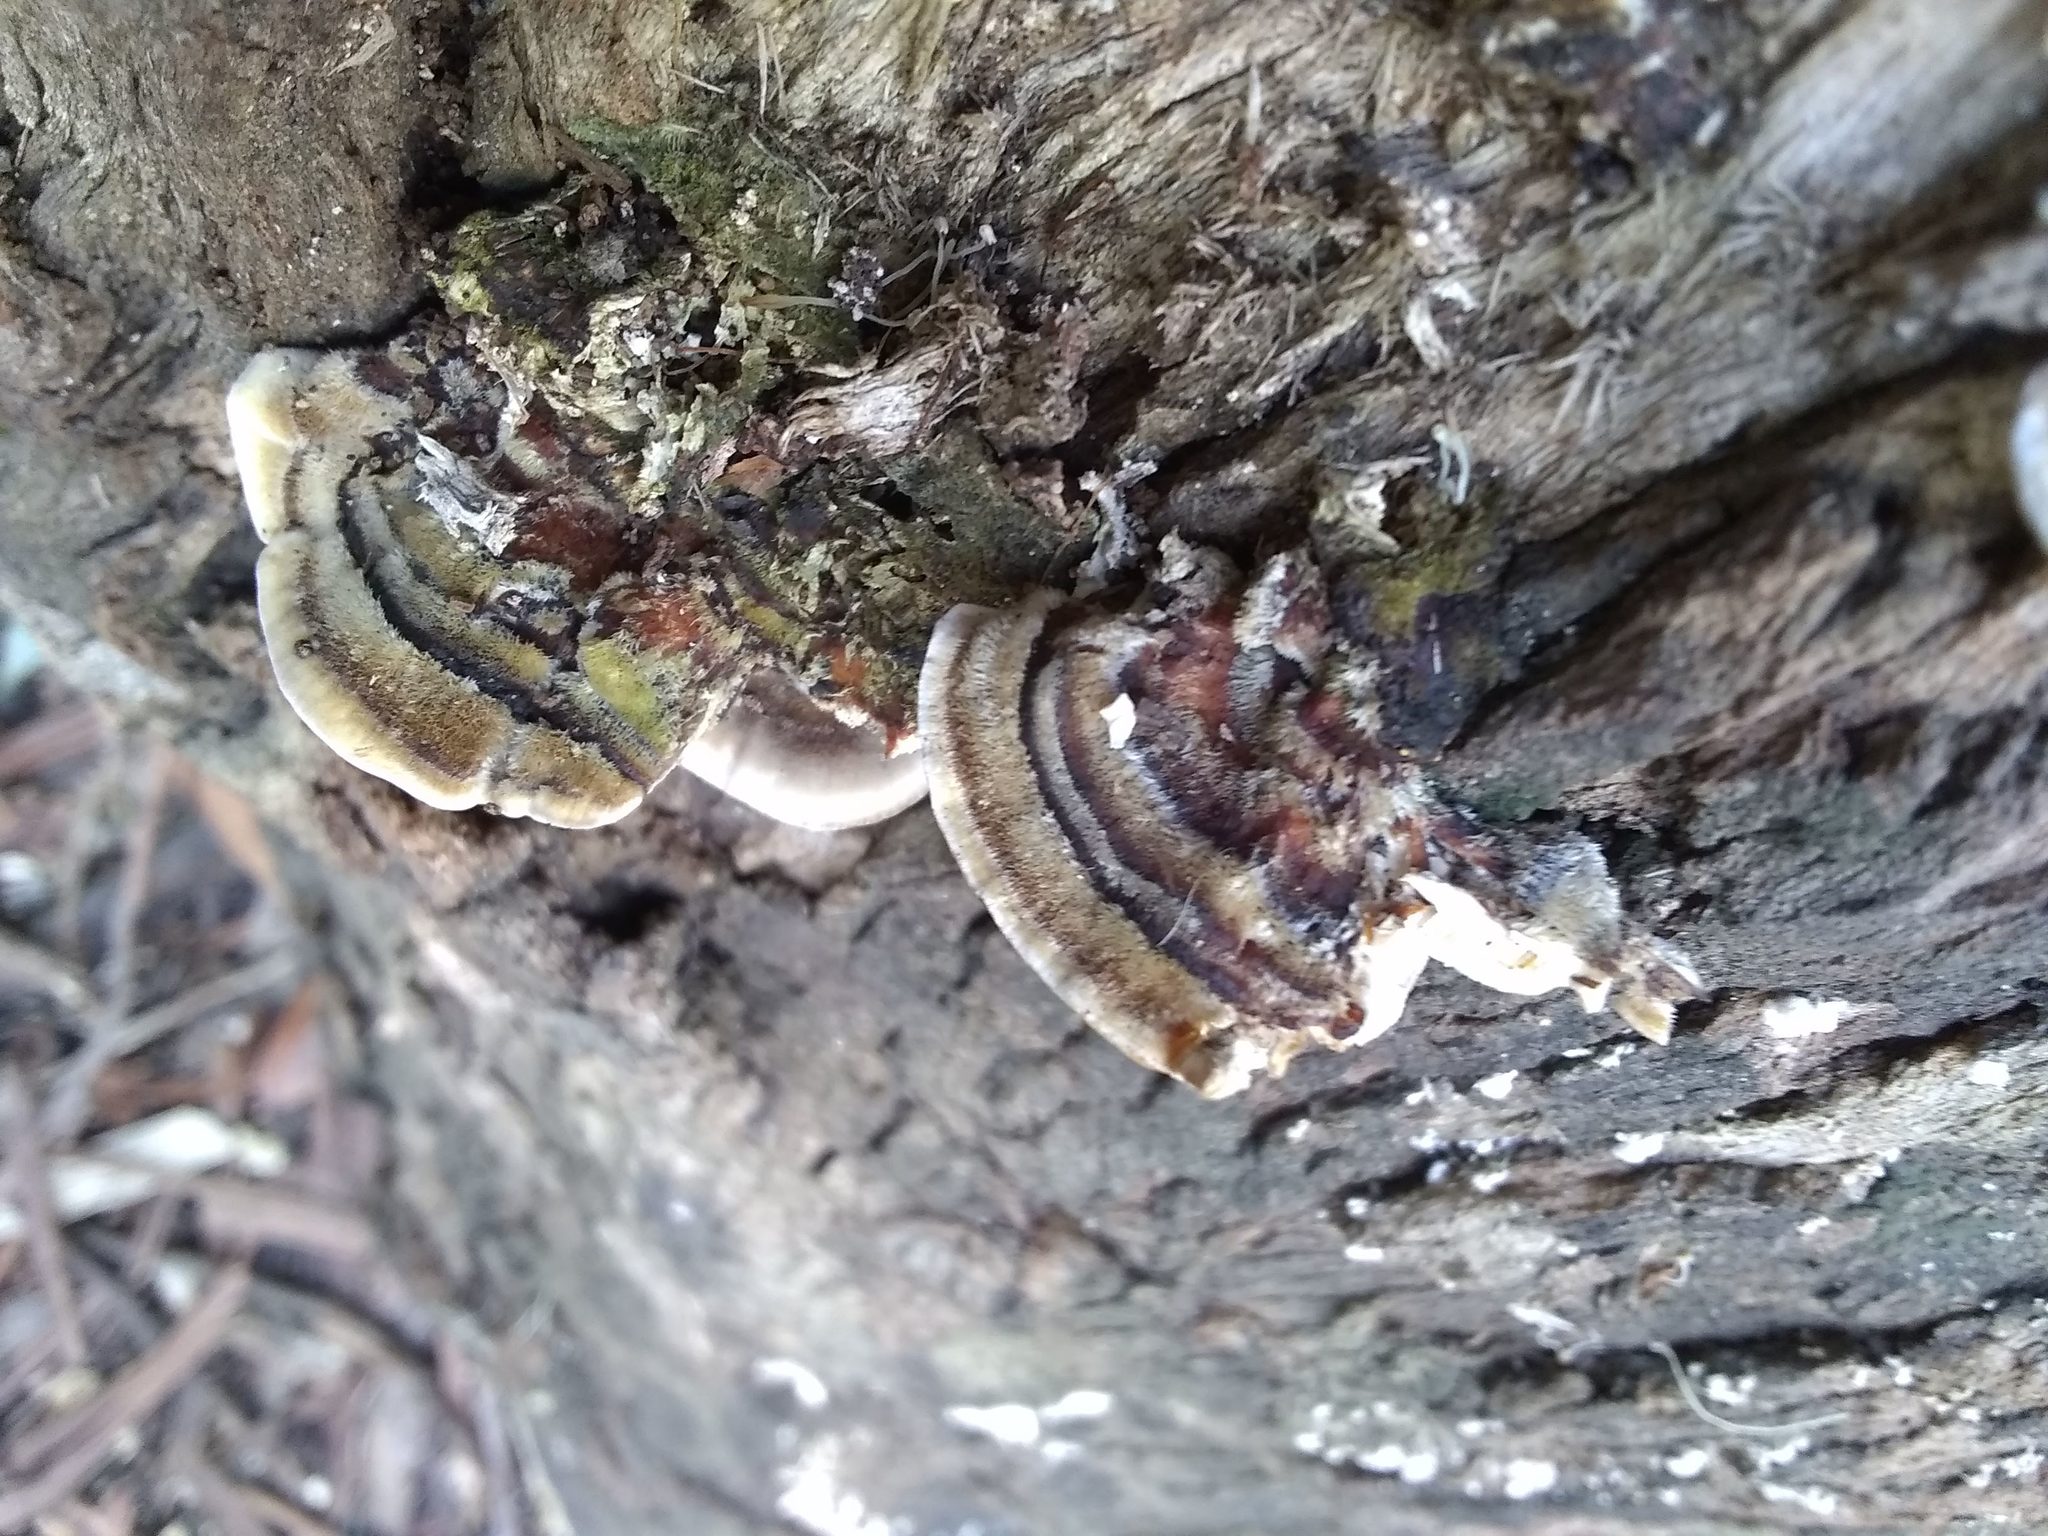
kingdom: Fungi
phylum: Basidiomycota
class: Agaricomycetes
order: Polyporales
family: Polyporaceae
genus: Trametes
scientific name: Trametes versicolor
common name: Turkeytail
